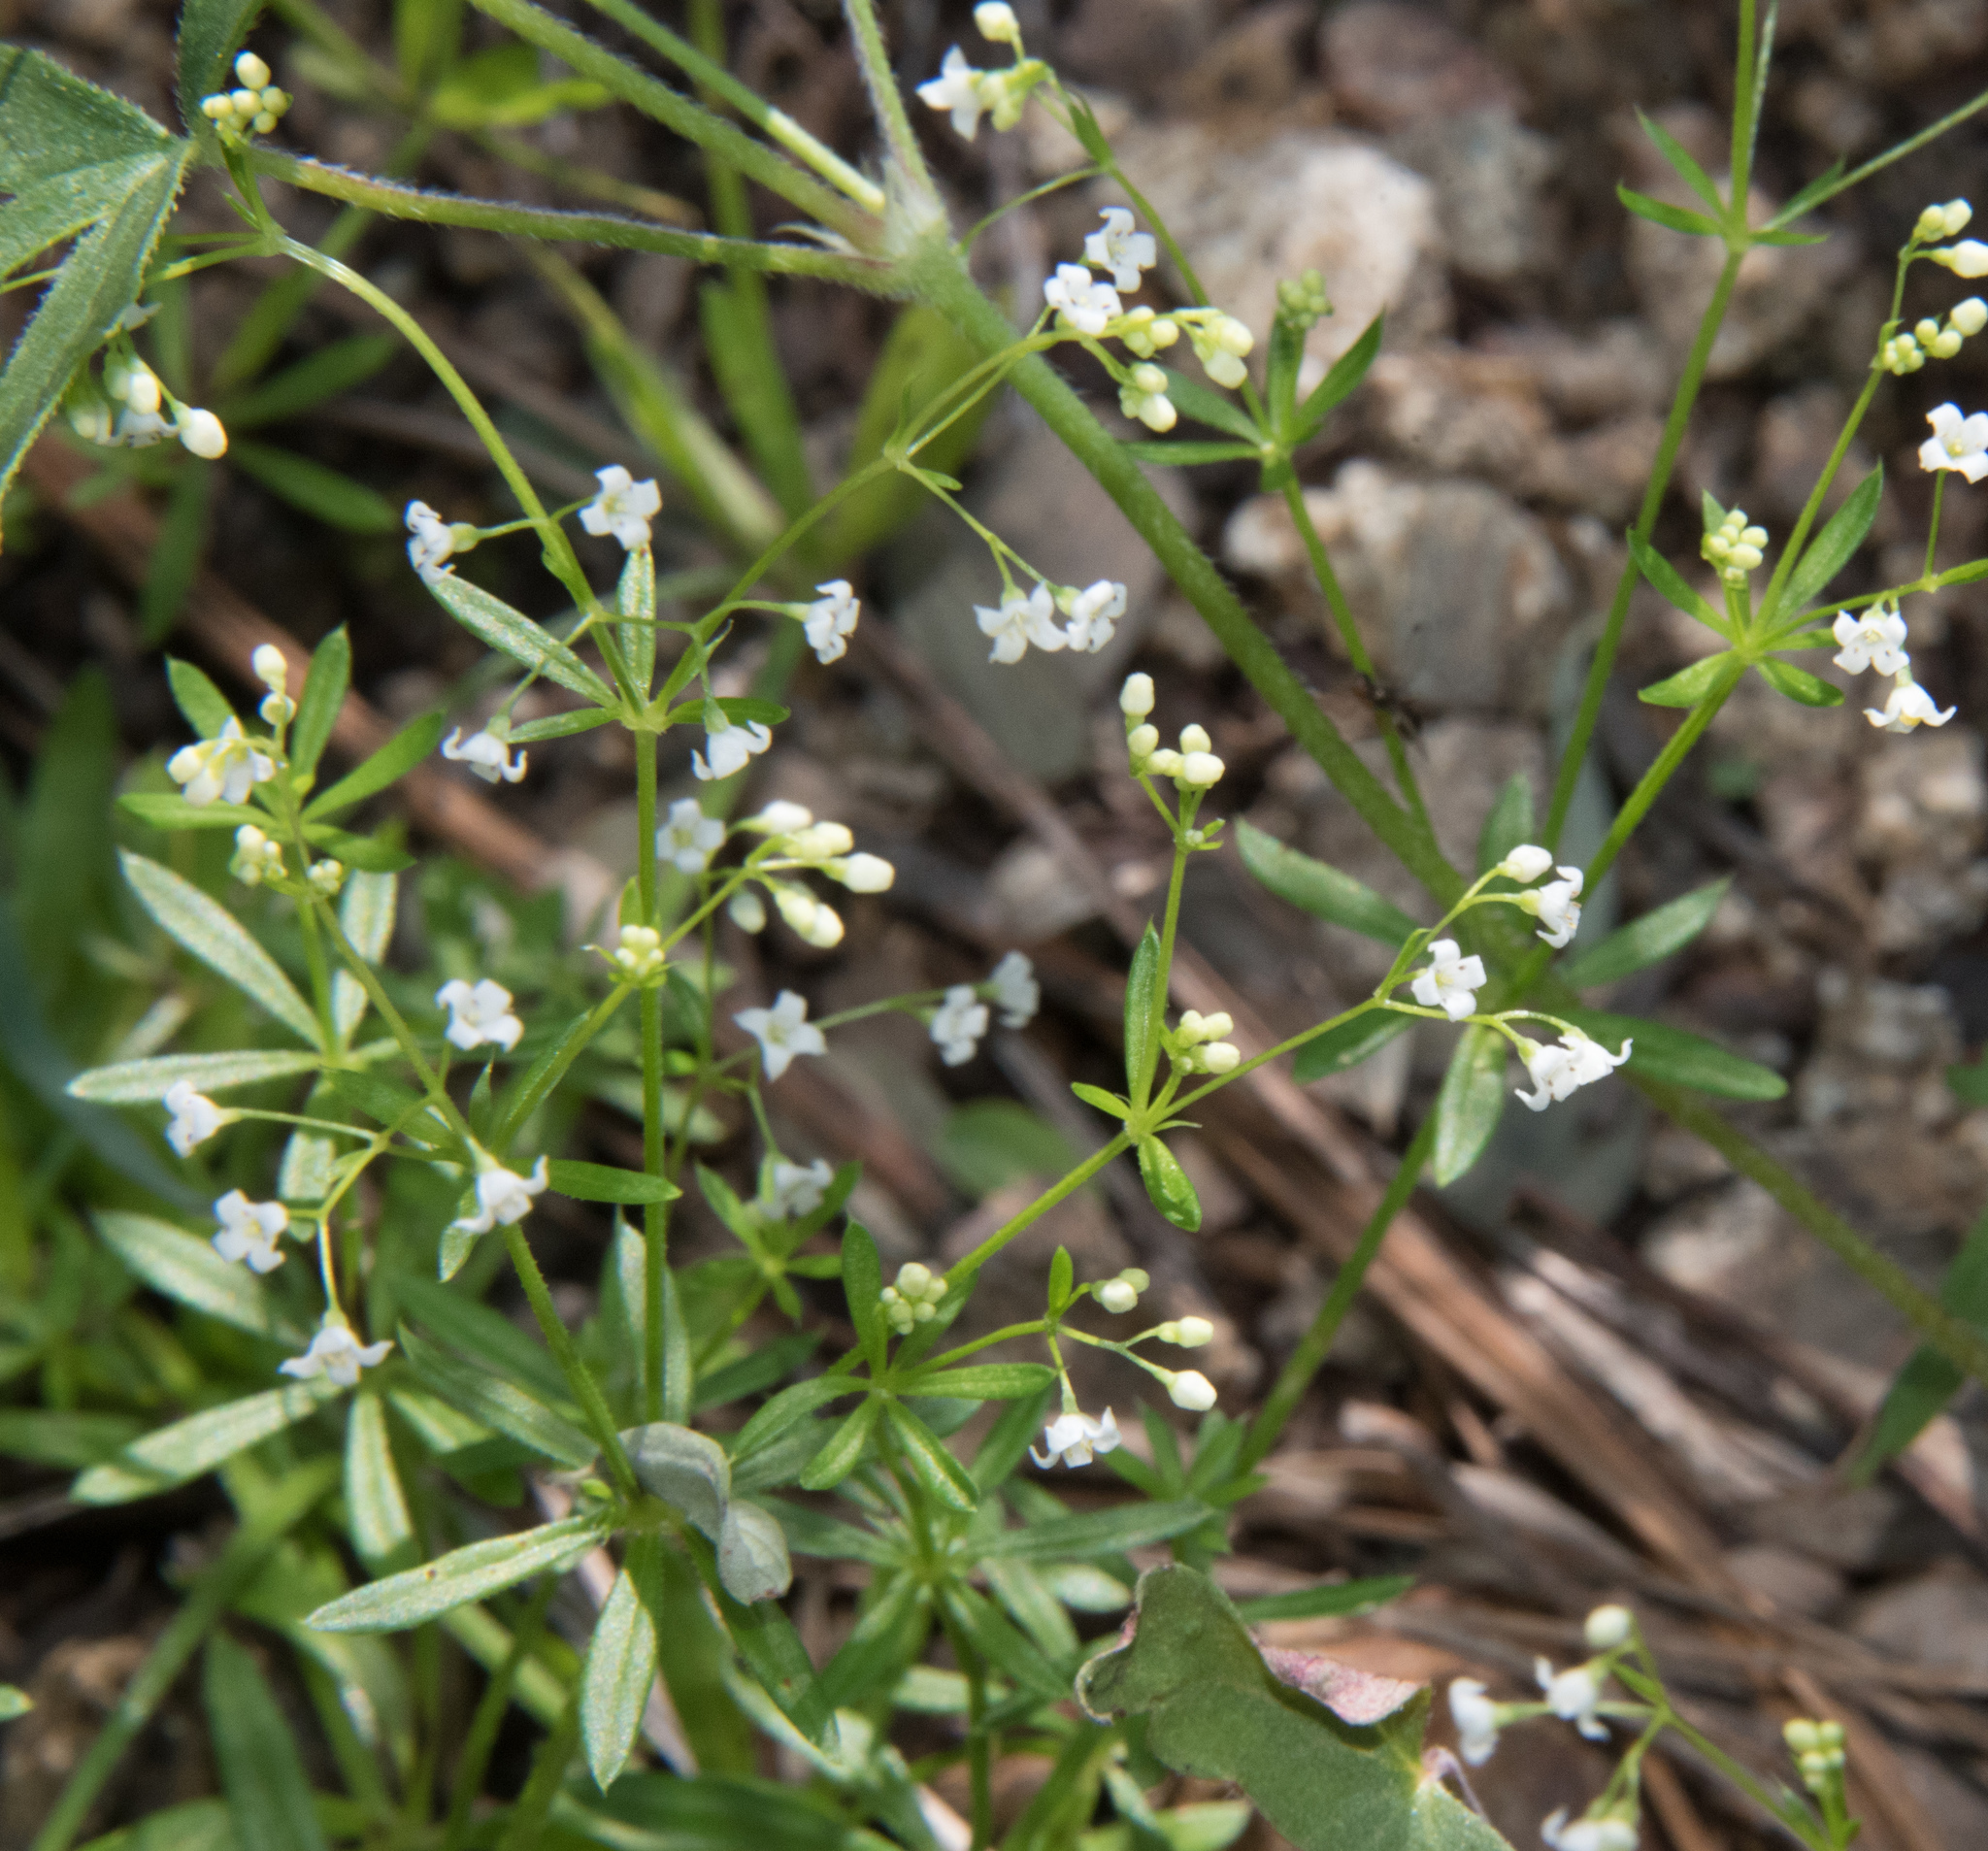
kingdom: Plantae
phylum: Tracheophyta
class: Magnoliopsida
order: Gentianales
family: Rubiaceae
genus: Galium
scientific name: Galium mexicanum
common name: Mexican bedstraw
